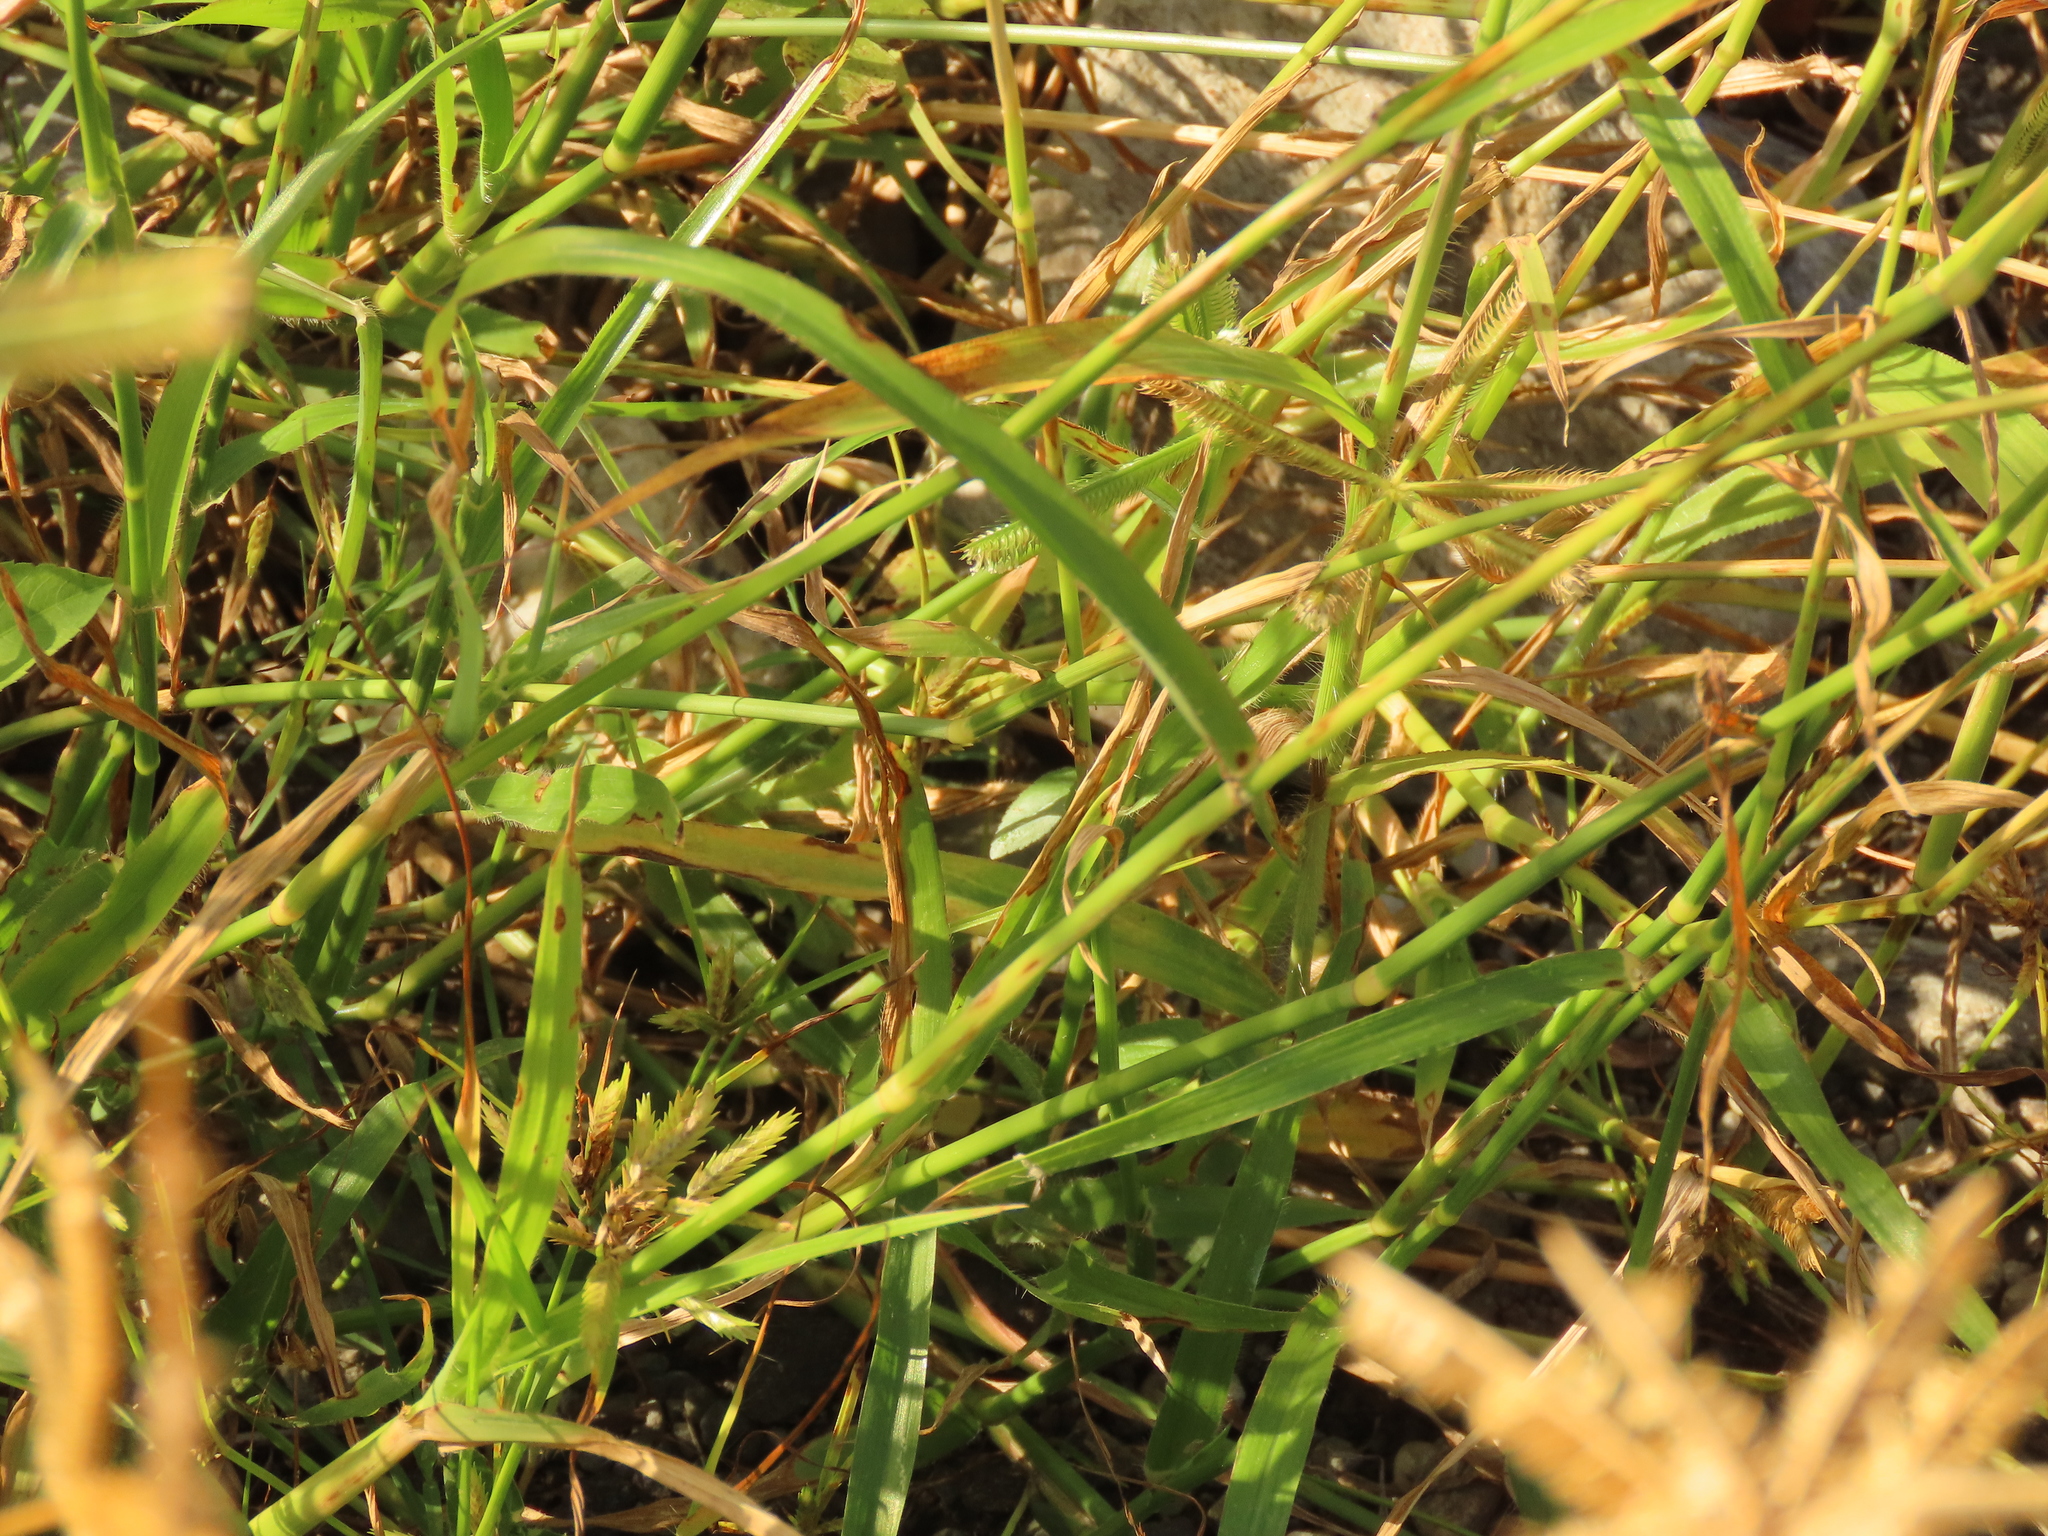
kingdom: Plantae
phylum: Tracheophyta
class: Liliopsida
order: Poales
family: Poaceae
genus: Dactyloctenium
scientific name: Dactyloctenium aegyptium
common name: Egyptian grass
